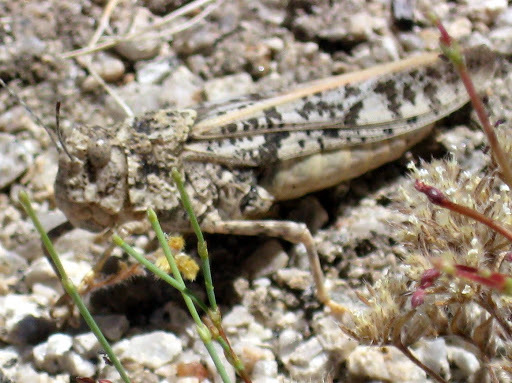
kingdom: Animalia
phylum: Arthropoda
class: Insecta
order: Orthoptera
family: Acrididae
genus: Xanthippus
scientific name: Xanthippus olancha
